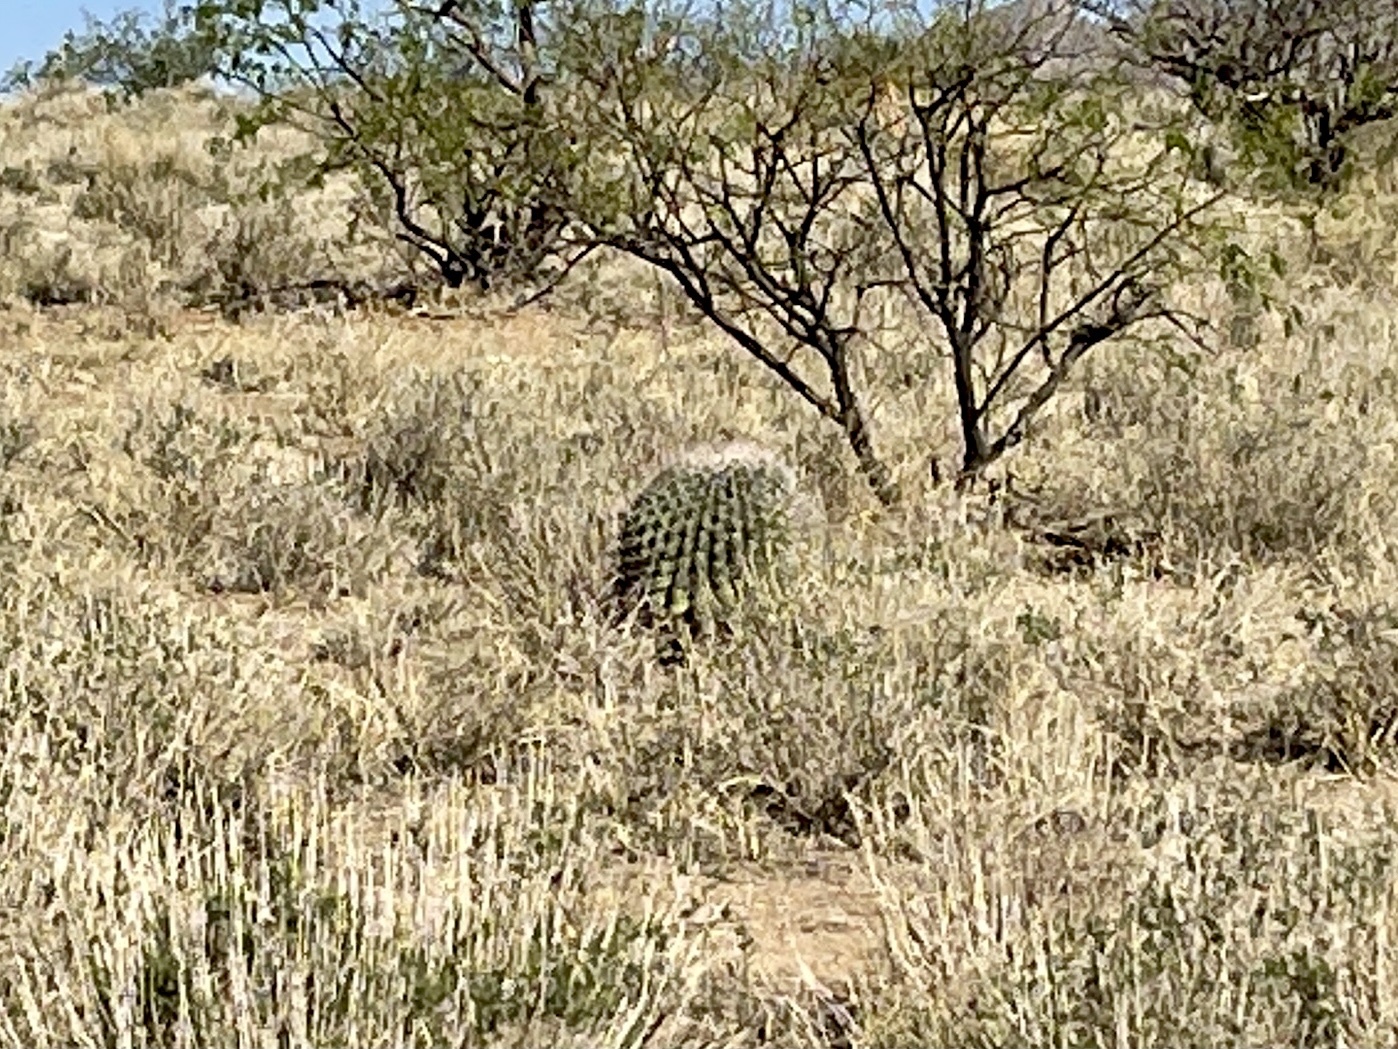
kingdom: Plantae
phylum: Tracheophyta
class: Magnoliopsida
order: Caryophyllales
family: Cactaceae
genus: Ferocactus
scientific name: Ferocactus wislizeni
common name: Candy barrel cactus
